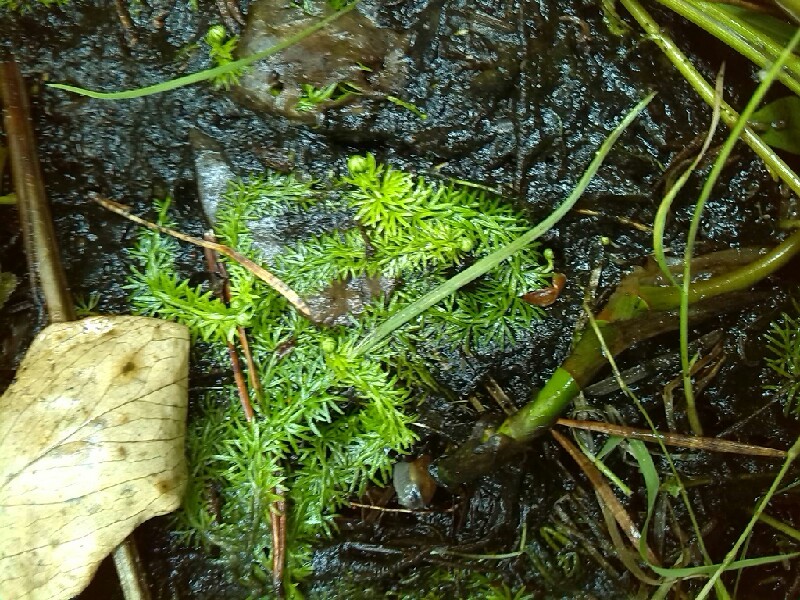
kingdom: Plantae
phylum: Tracheophyta
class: Magnoliopsida
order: Lamiales
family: Lentibulariaceae
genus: Utricularia
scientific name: Utricularia intermedia
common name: Intermediate bladderwort
